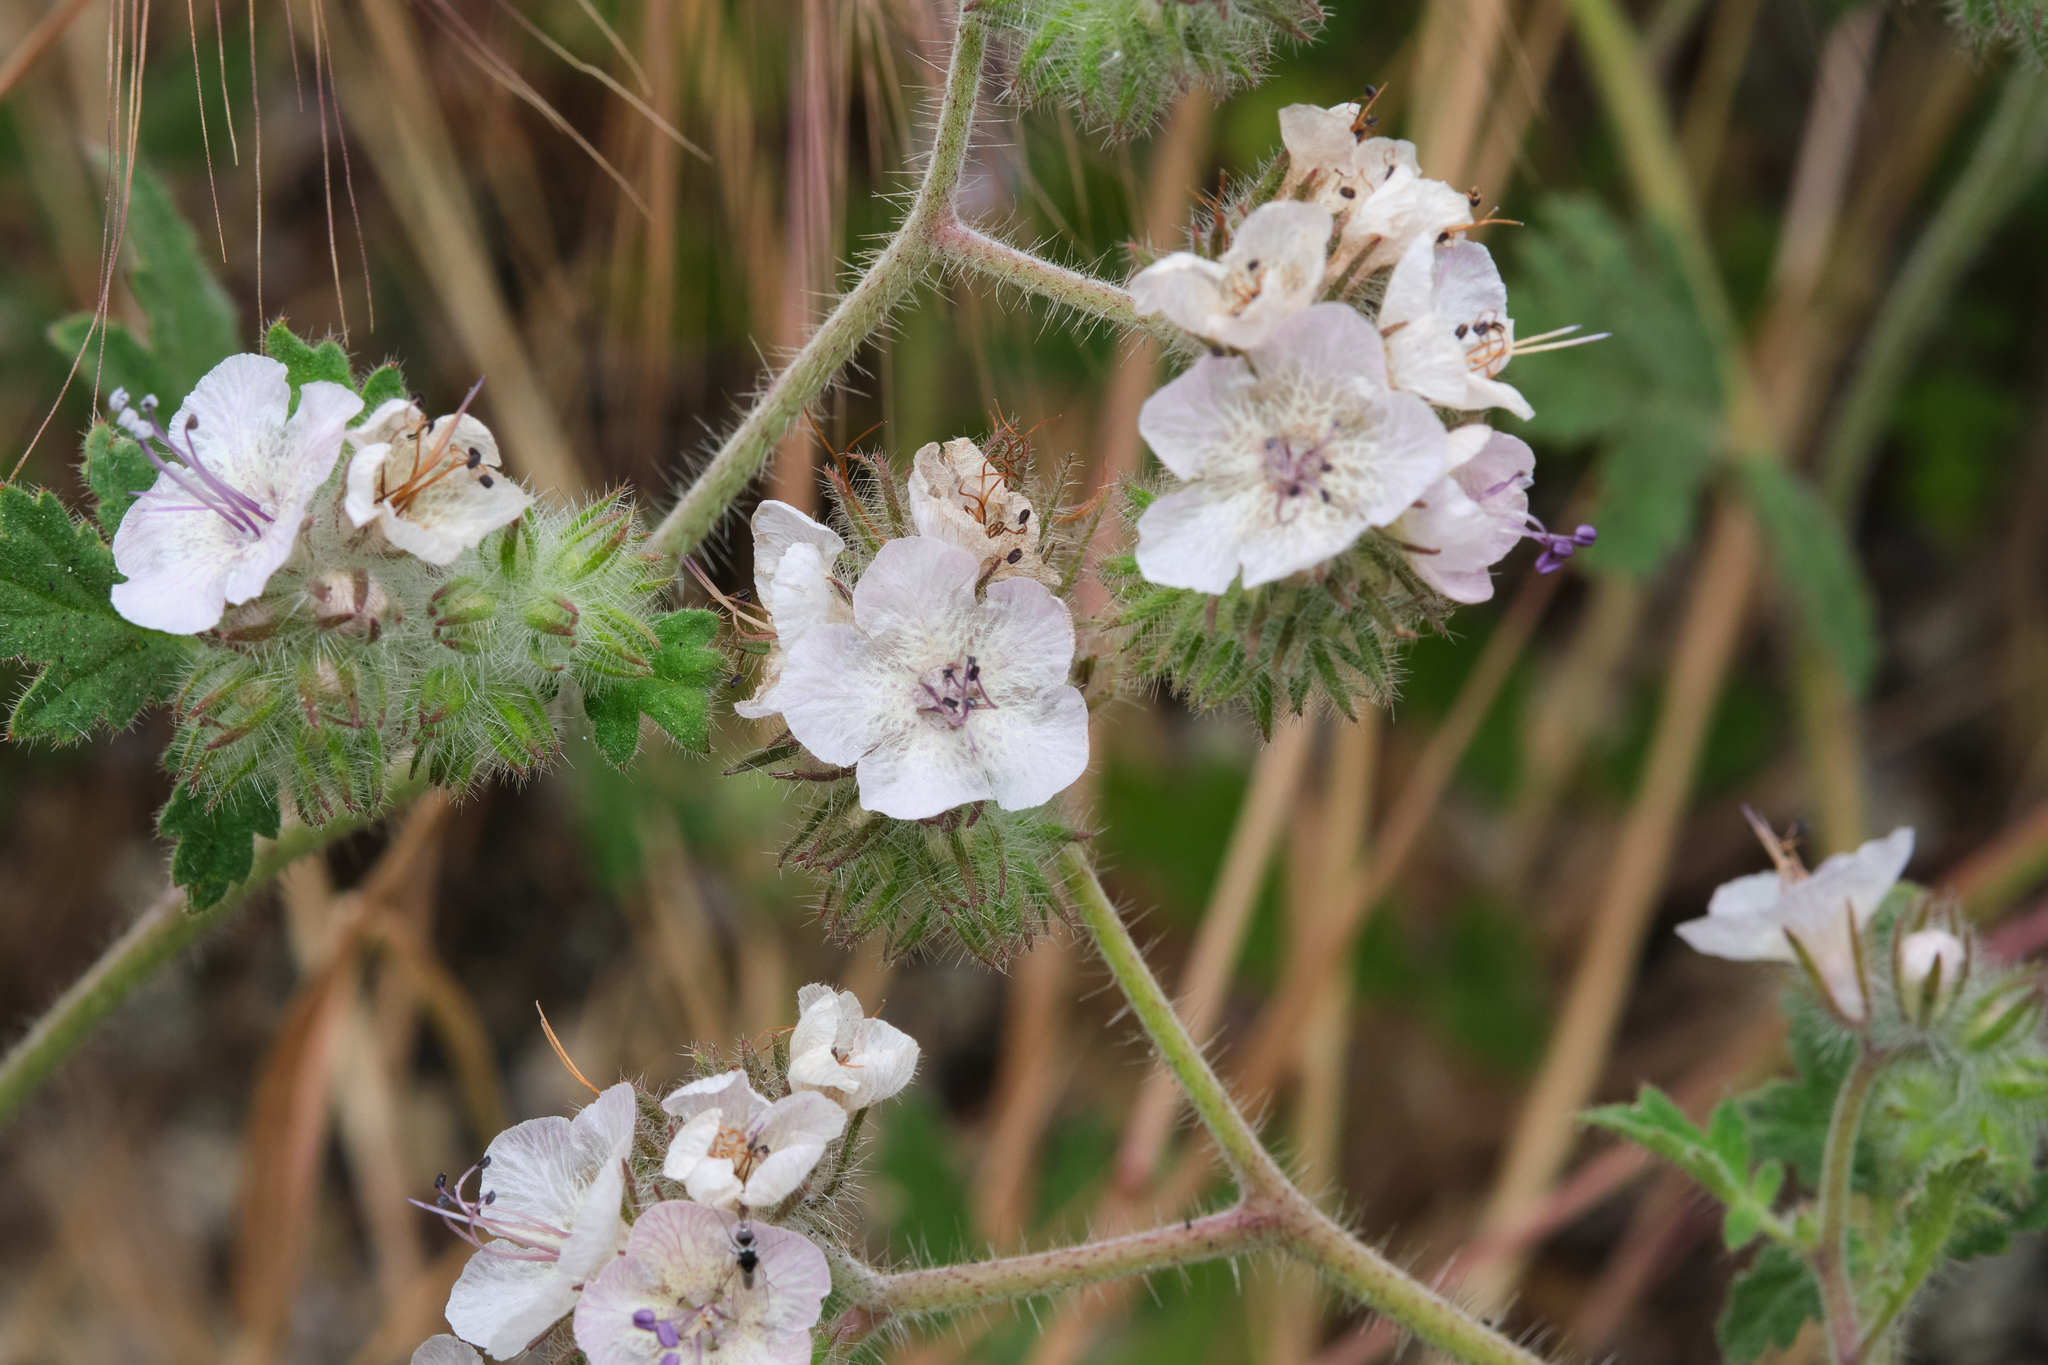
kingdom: Plantae
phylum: Tracheophyta
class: Magnoliopsida
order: Boraginales
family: Hydrophyllaceae
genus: Phacelia
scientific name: Phacelia cicutaria
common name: Caterpillar phacelia
